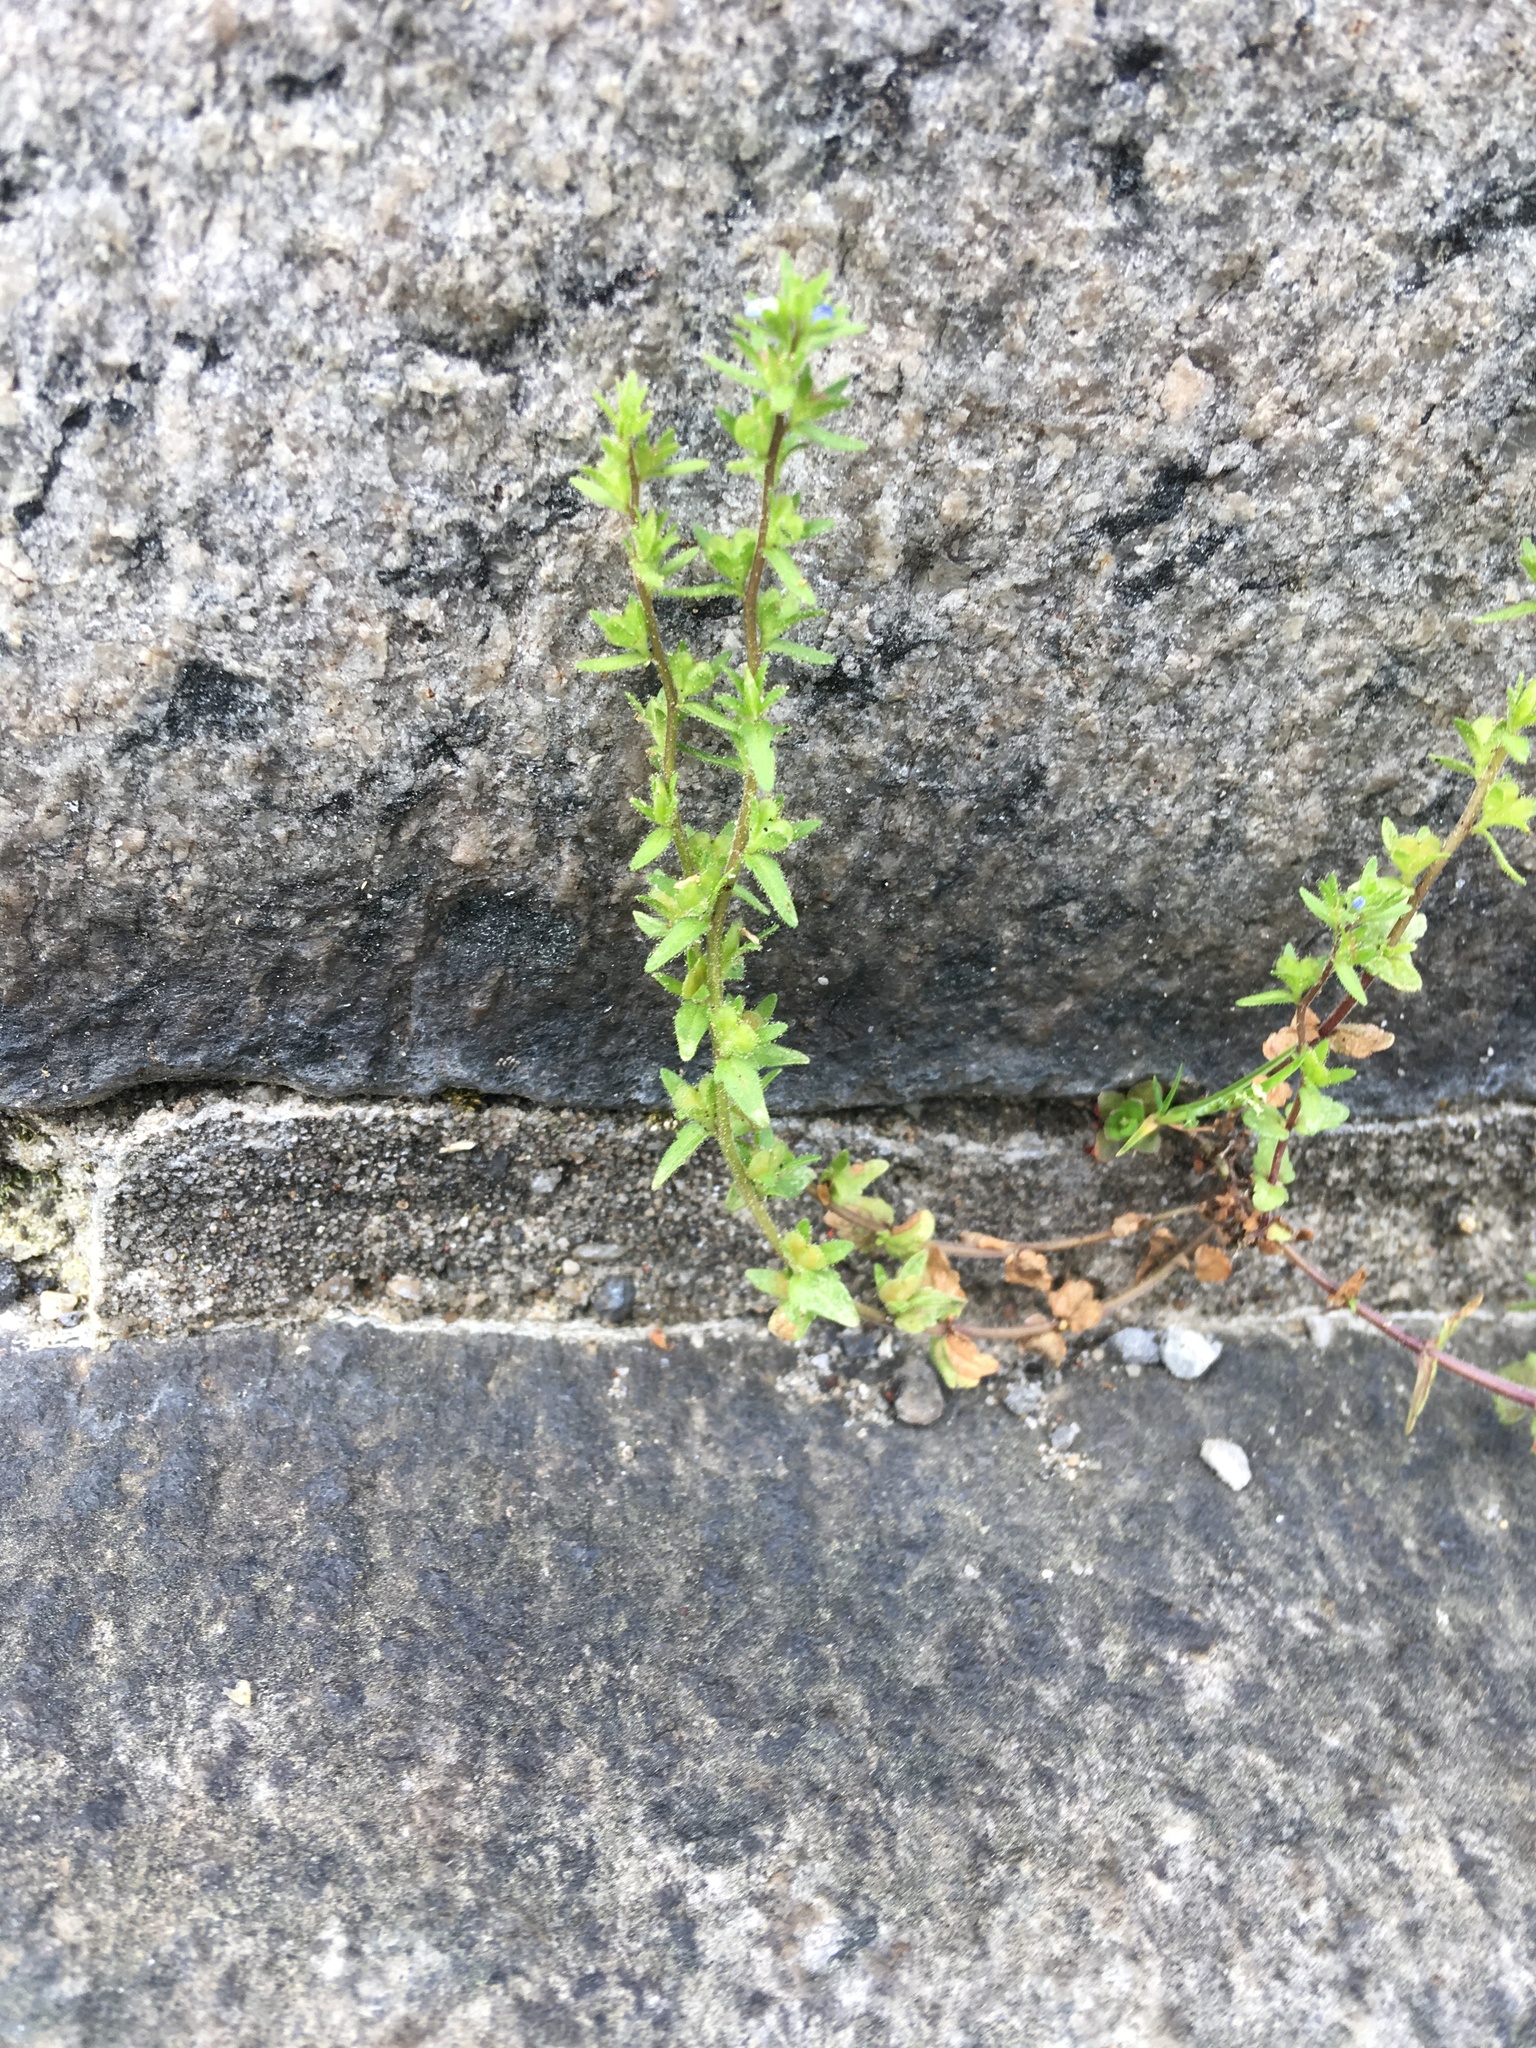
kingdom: Plantae
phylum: Tracheophyta
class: Magnoliopsida
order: Lamiales
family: Plantaginaceae
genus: Veronica
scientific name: Veronica arvensis
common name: Corn speedwell
